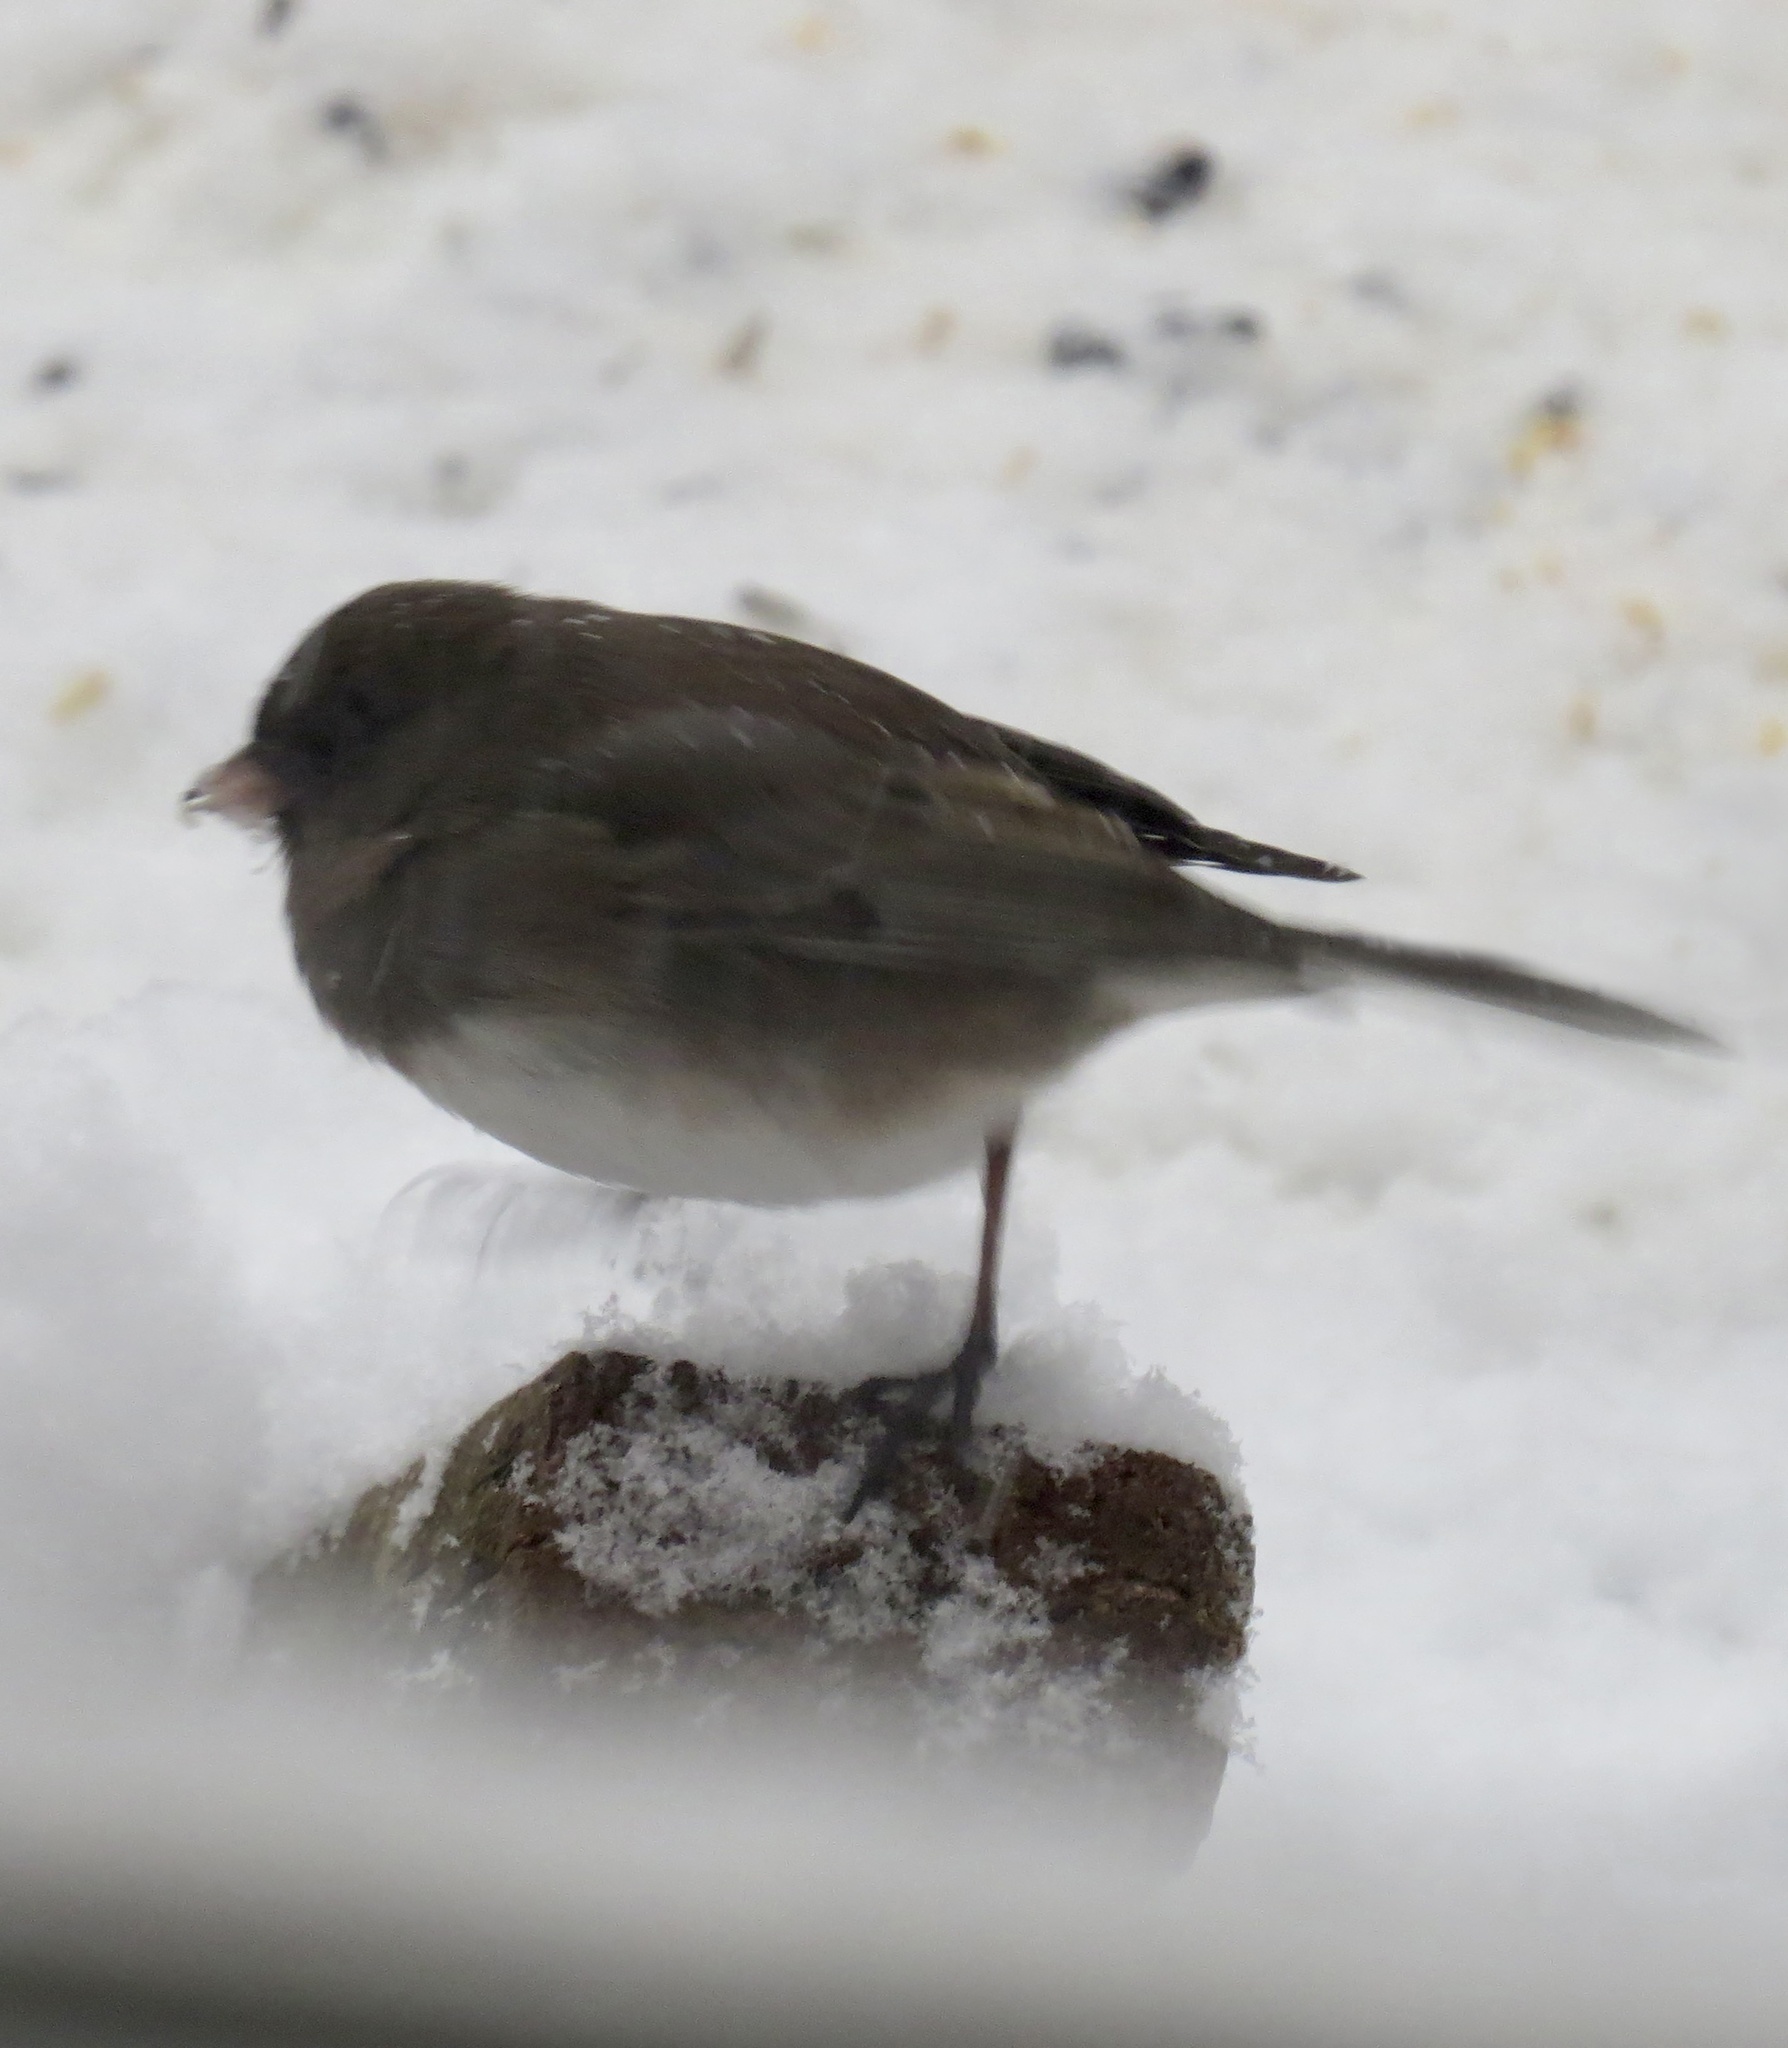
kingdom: Animalia
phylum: Chordata
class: Aves
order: Passeriformes
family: Passerellidae
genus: Junco
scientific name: Junco hyemalis
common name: Dark-eyed junco
